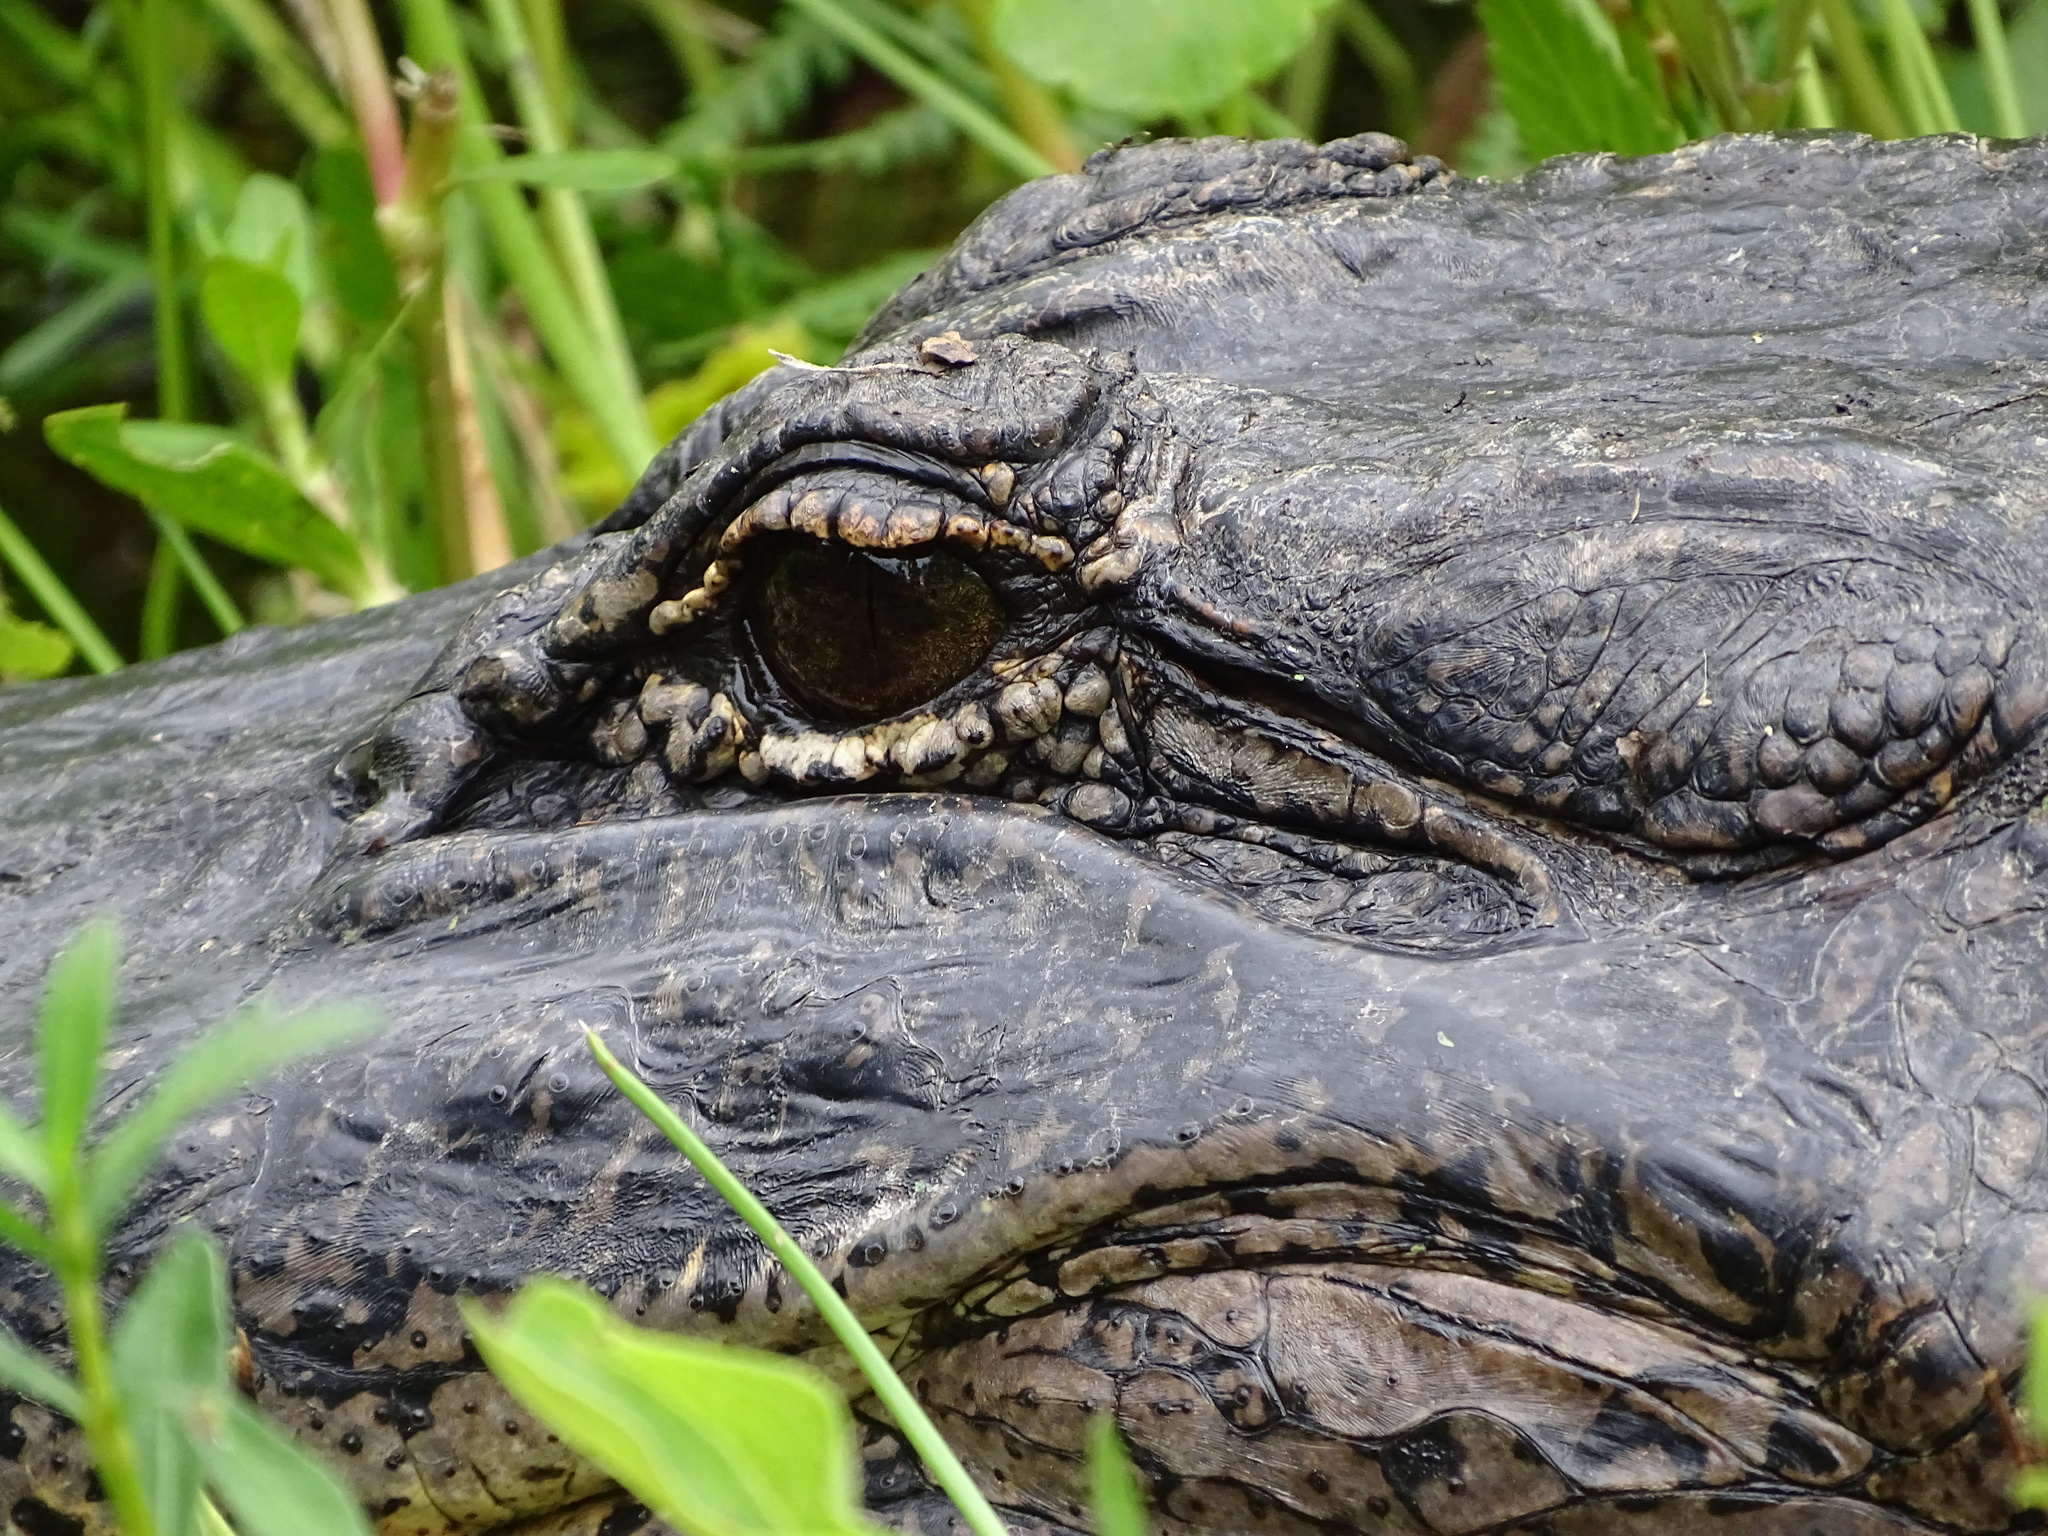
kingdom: Animalia
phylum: Chordata
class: Crocodylia
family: Alligatoridae
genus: Alligator
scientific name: Alligator mississippiensis
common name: American alligator
